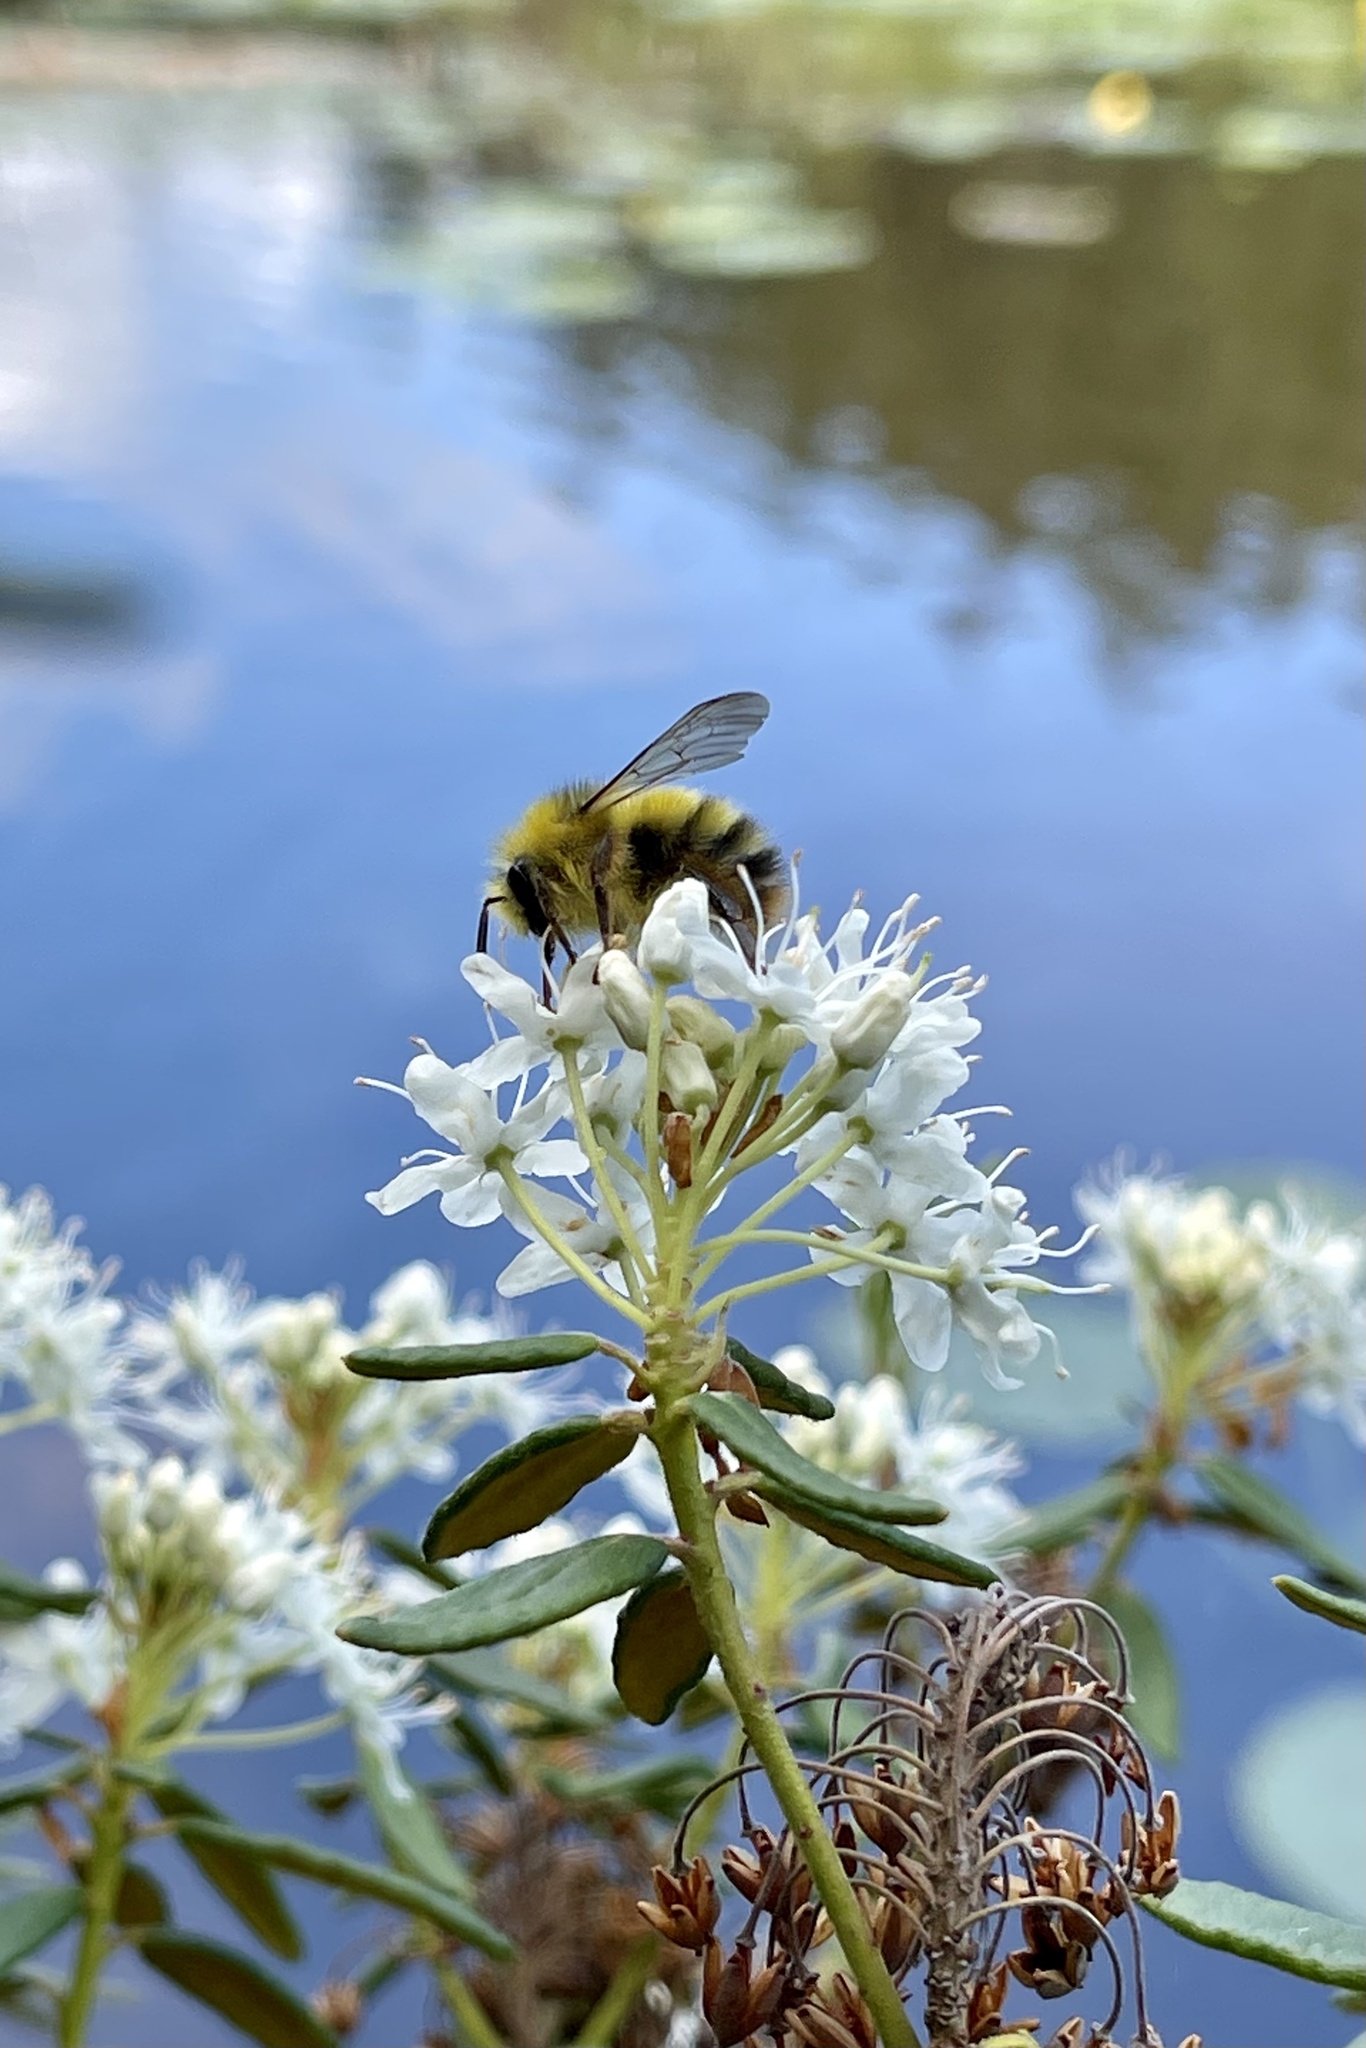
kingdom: Animalia
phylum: Arthropoda
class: Insecta
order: Hymenoptera
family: Apidae
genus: Bombus
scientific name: Bombus sitkensis
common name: Sitka bumble bee
